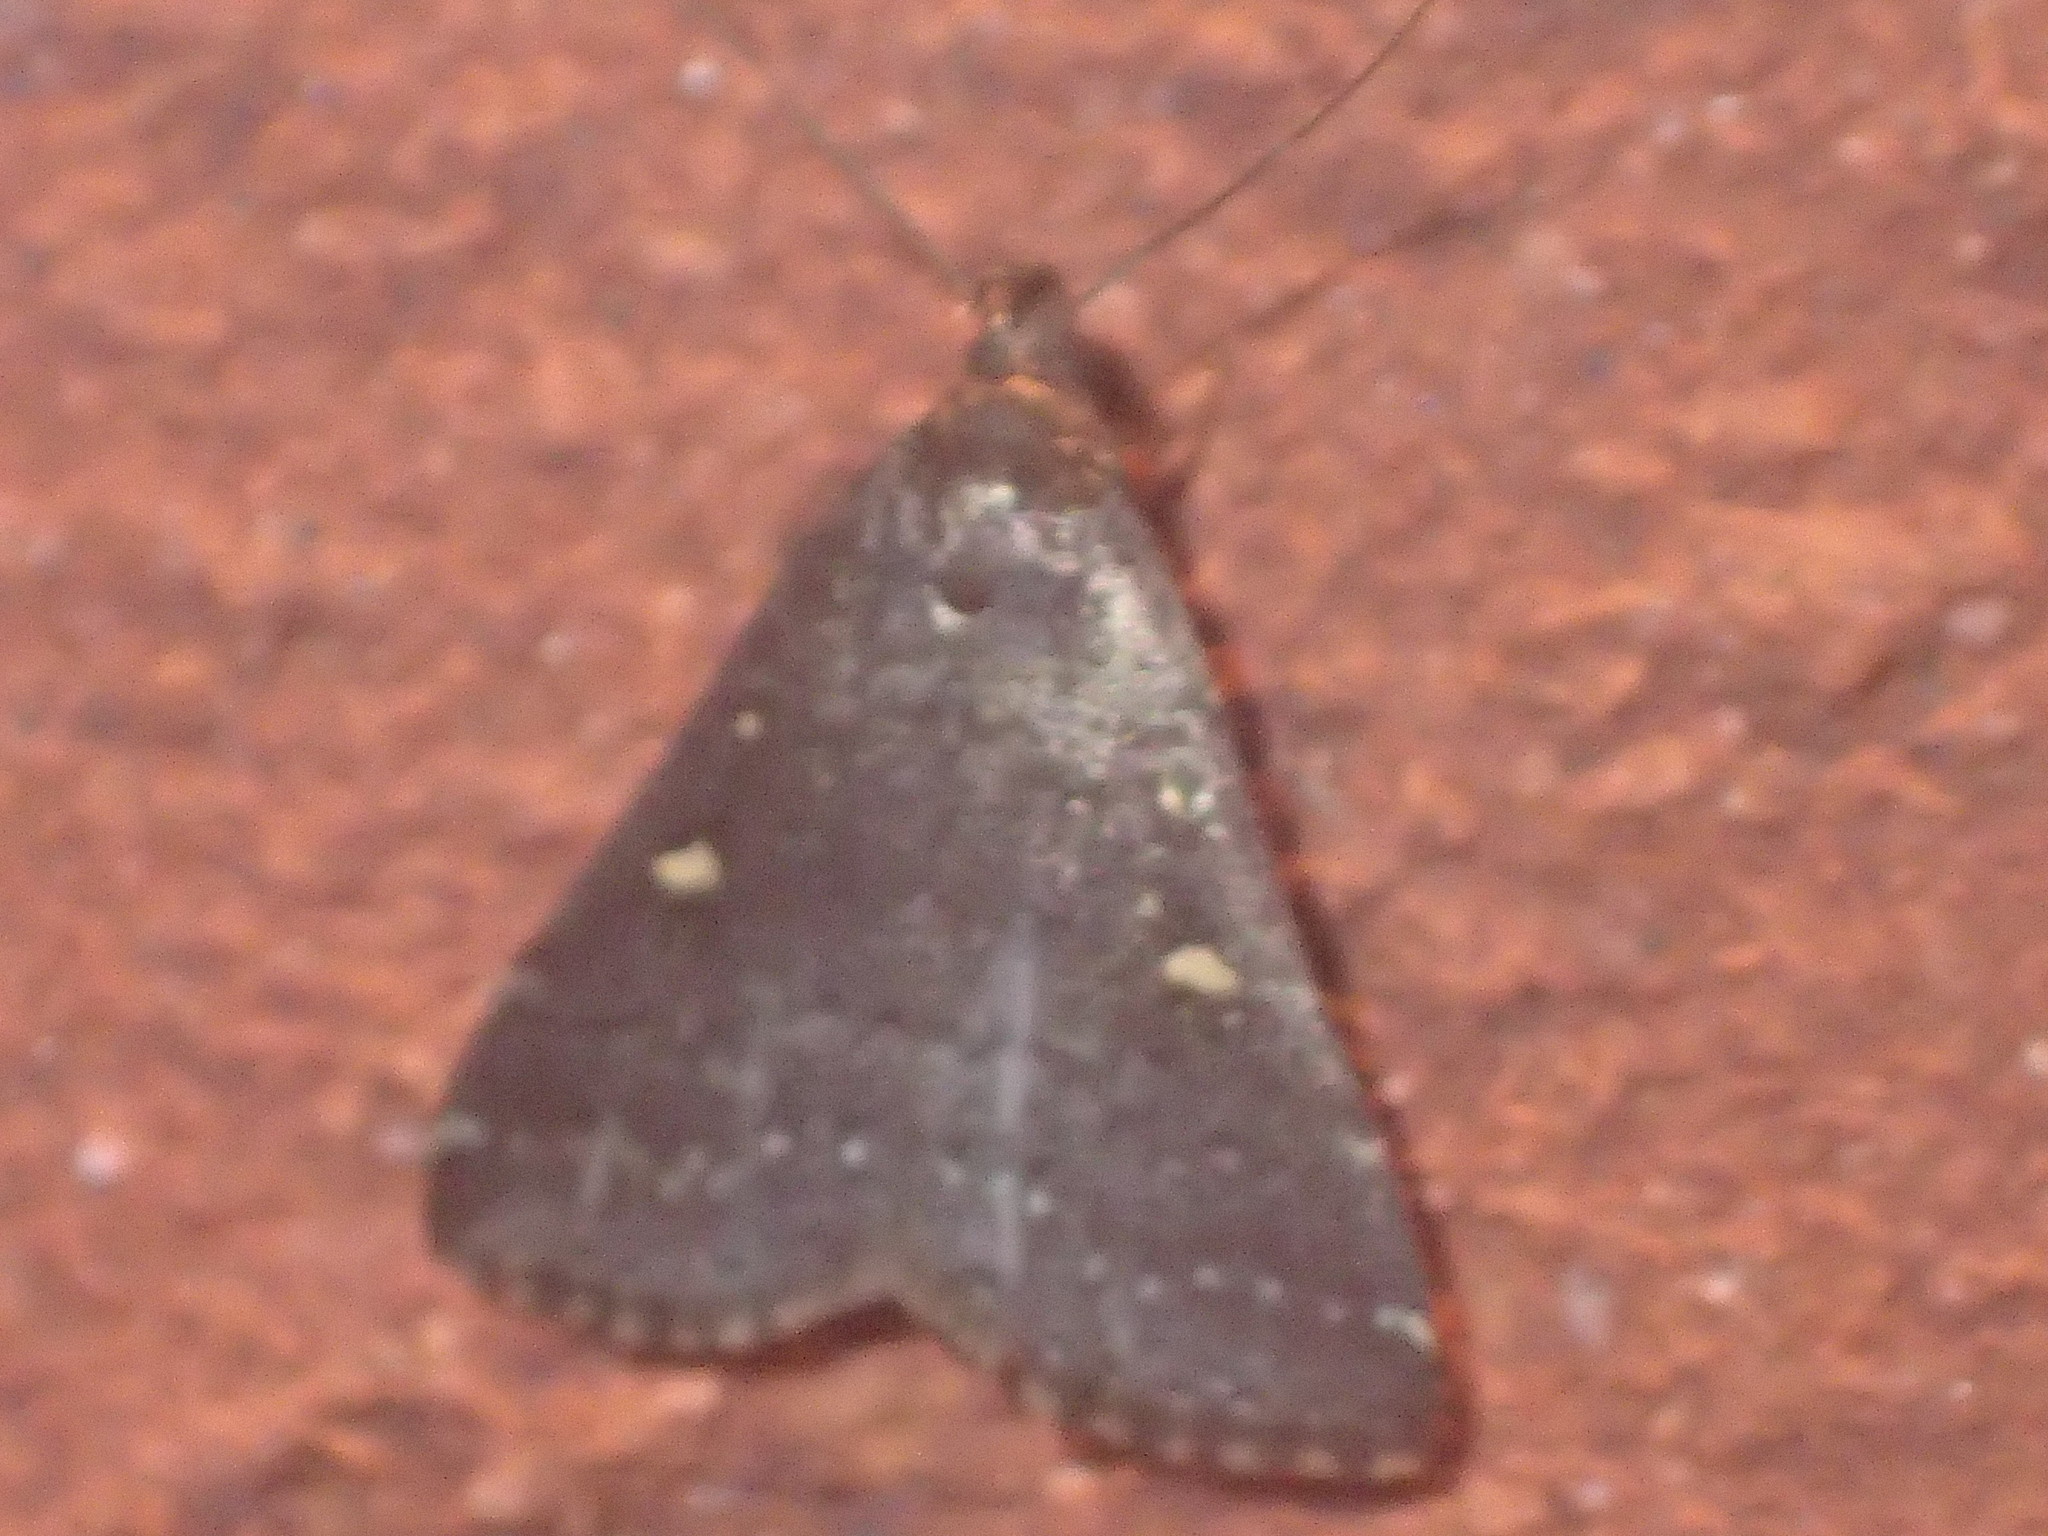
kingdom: Animalia
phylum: Arthropoda
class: Insecta
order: Lepidoptera
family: Erebidae
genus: Tetanolita
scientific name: Tetanolita mynesalis
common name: Smoky tetanolita moth
